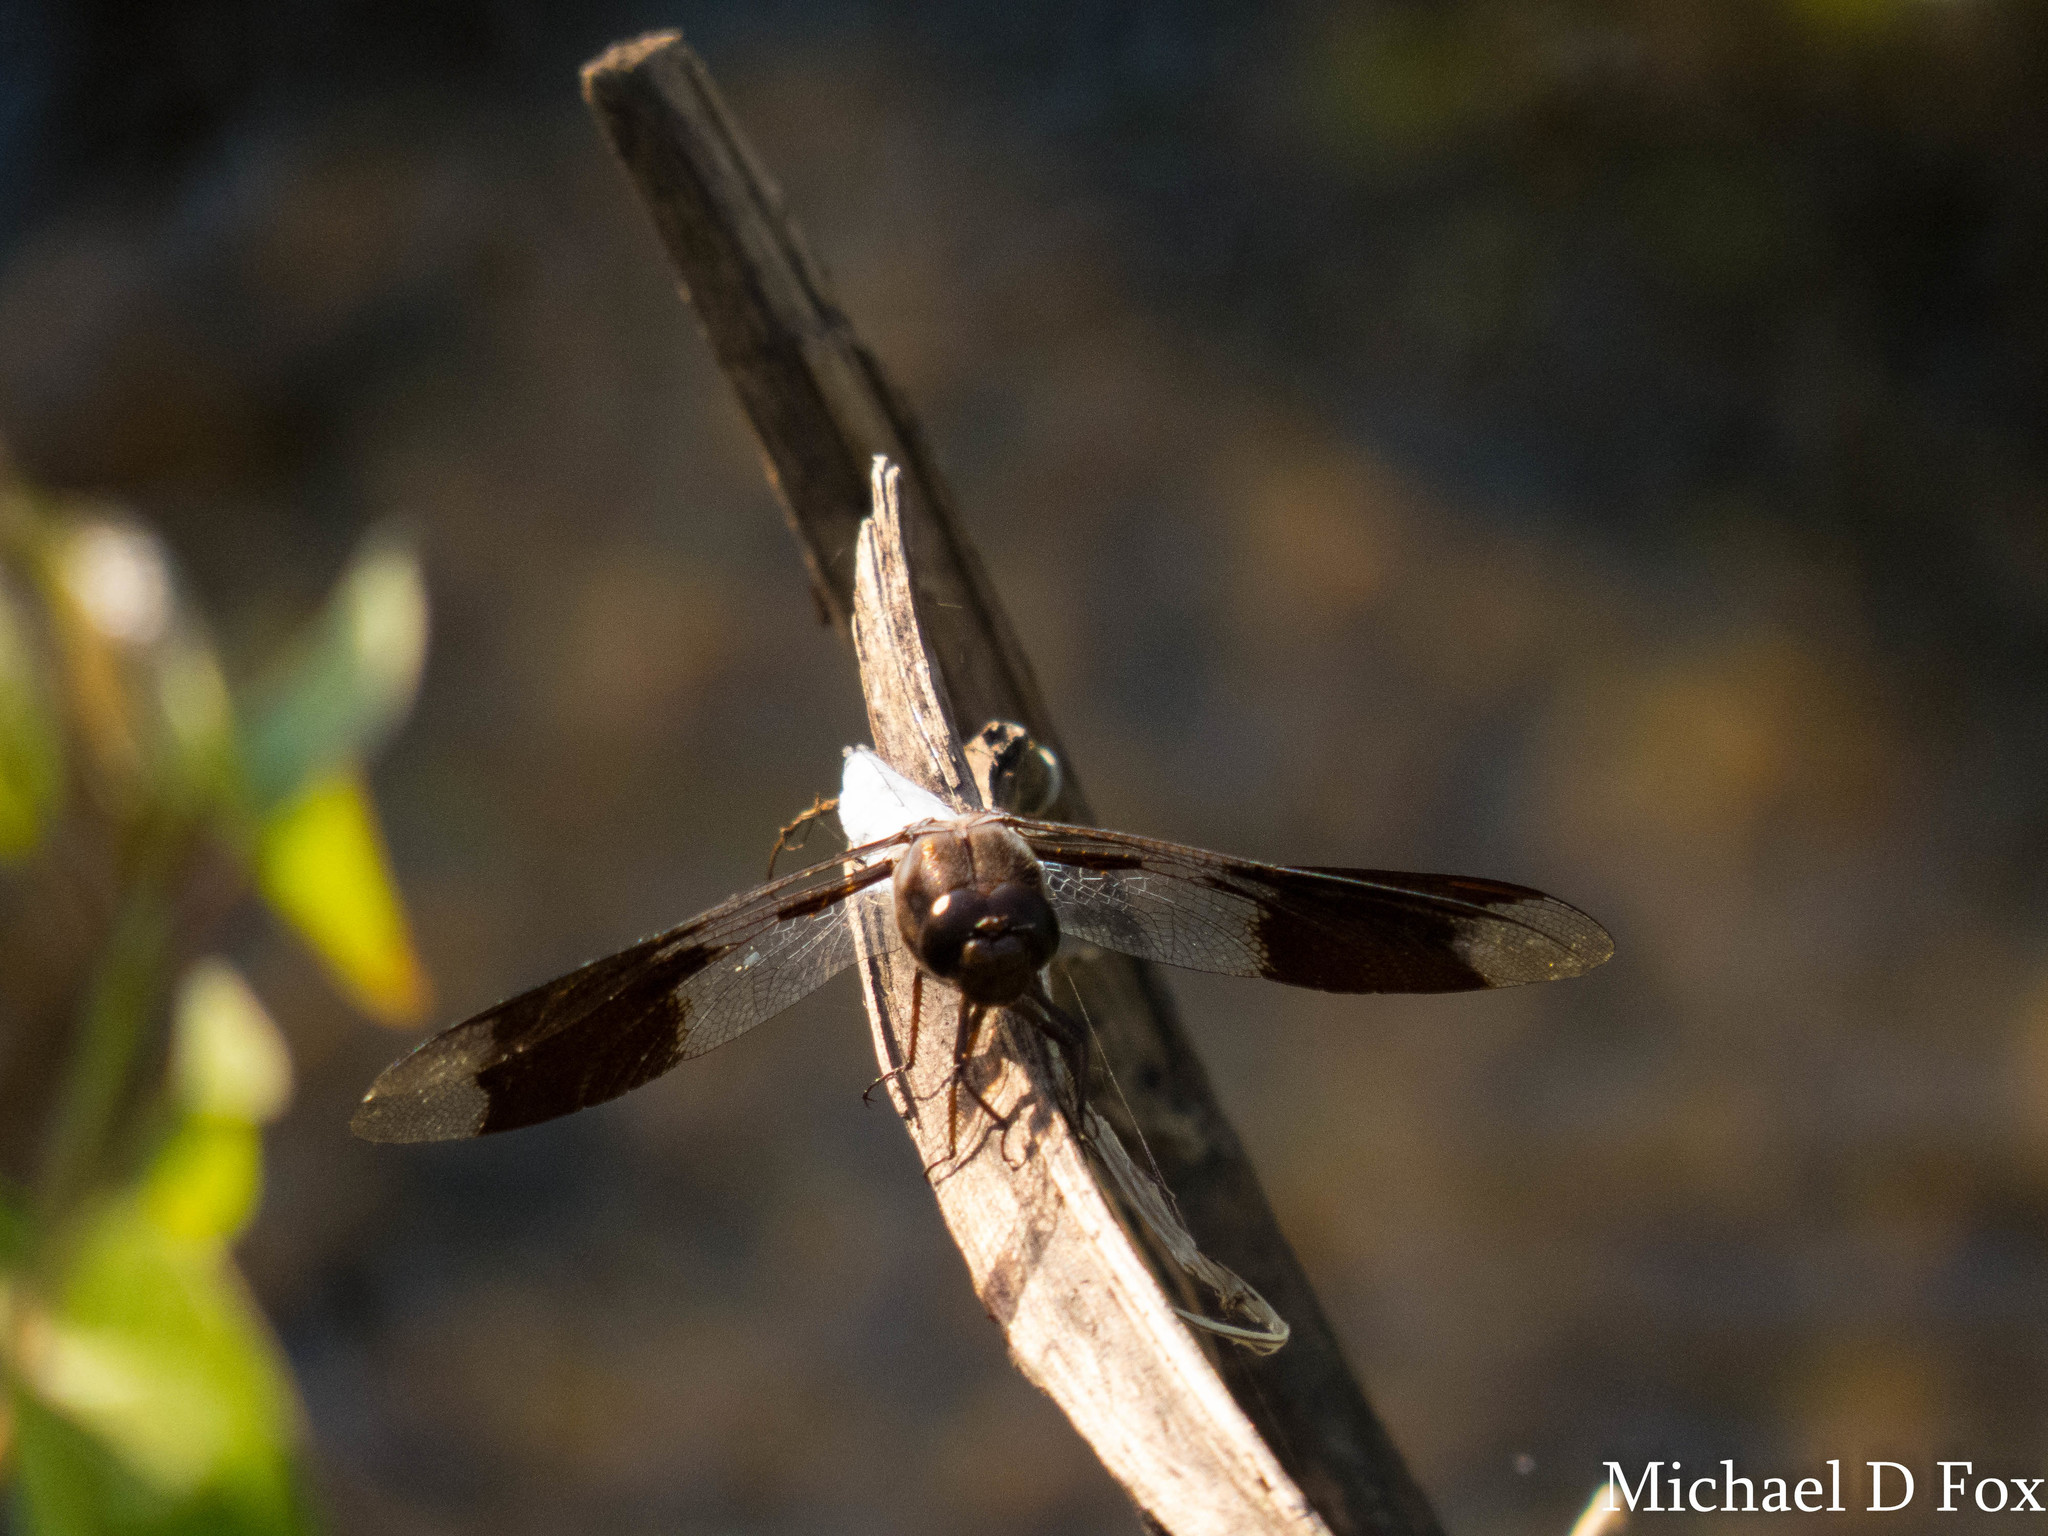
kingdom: Animalia
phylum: Arthropoda
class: Insecta
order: Odonata
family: Libellulidae
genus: Plathemis
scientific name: Plathemis lydia
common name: Common whitetail
